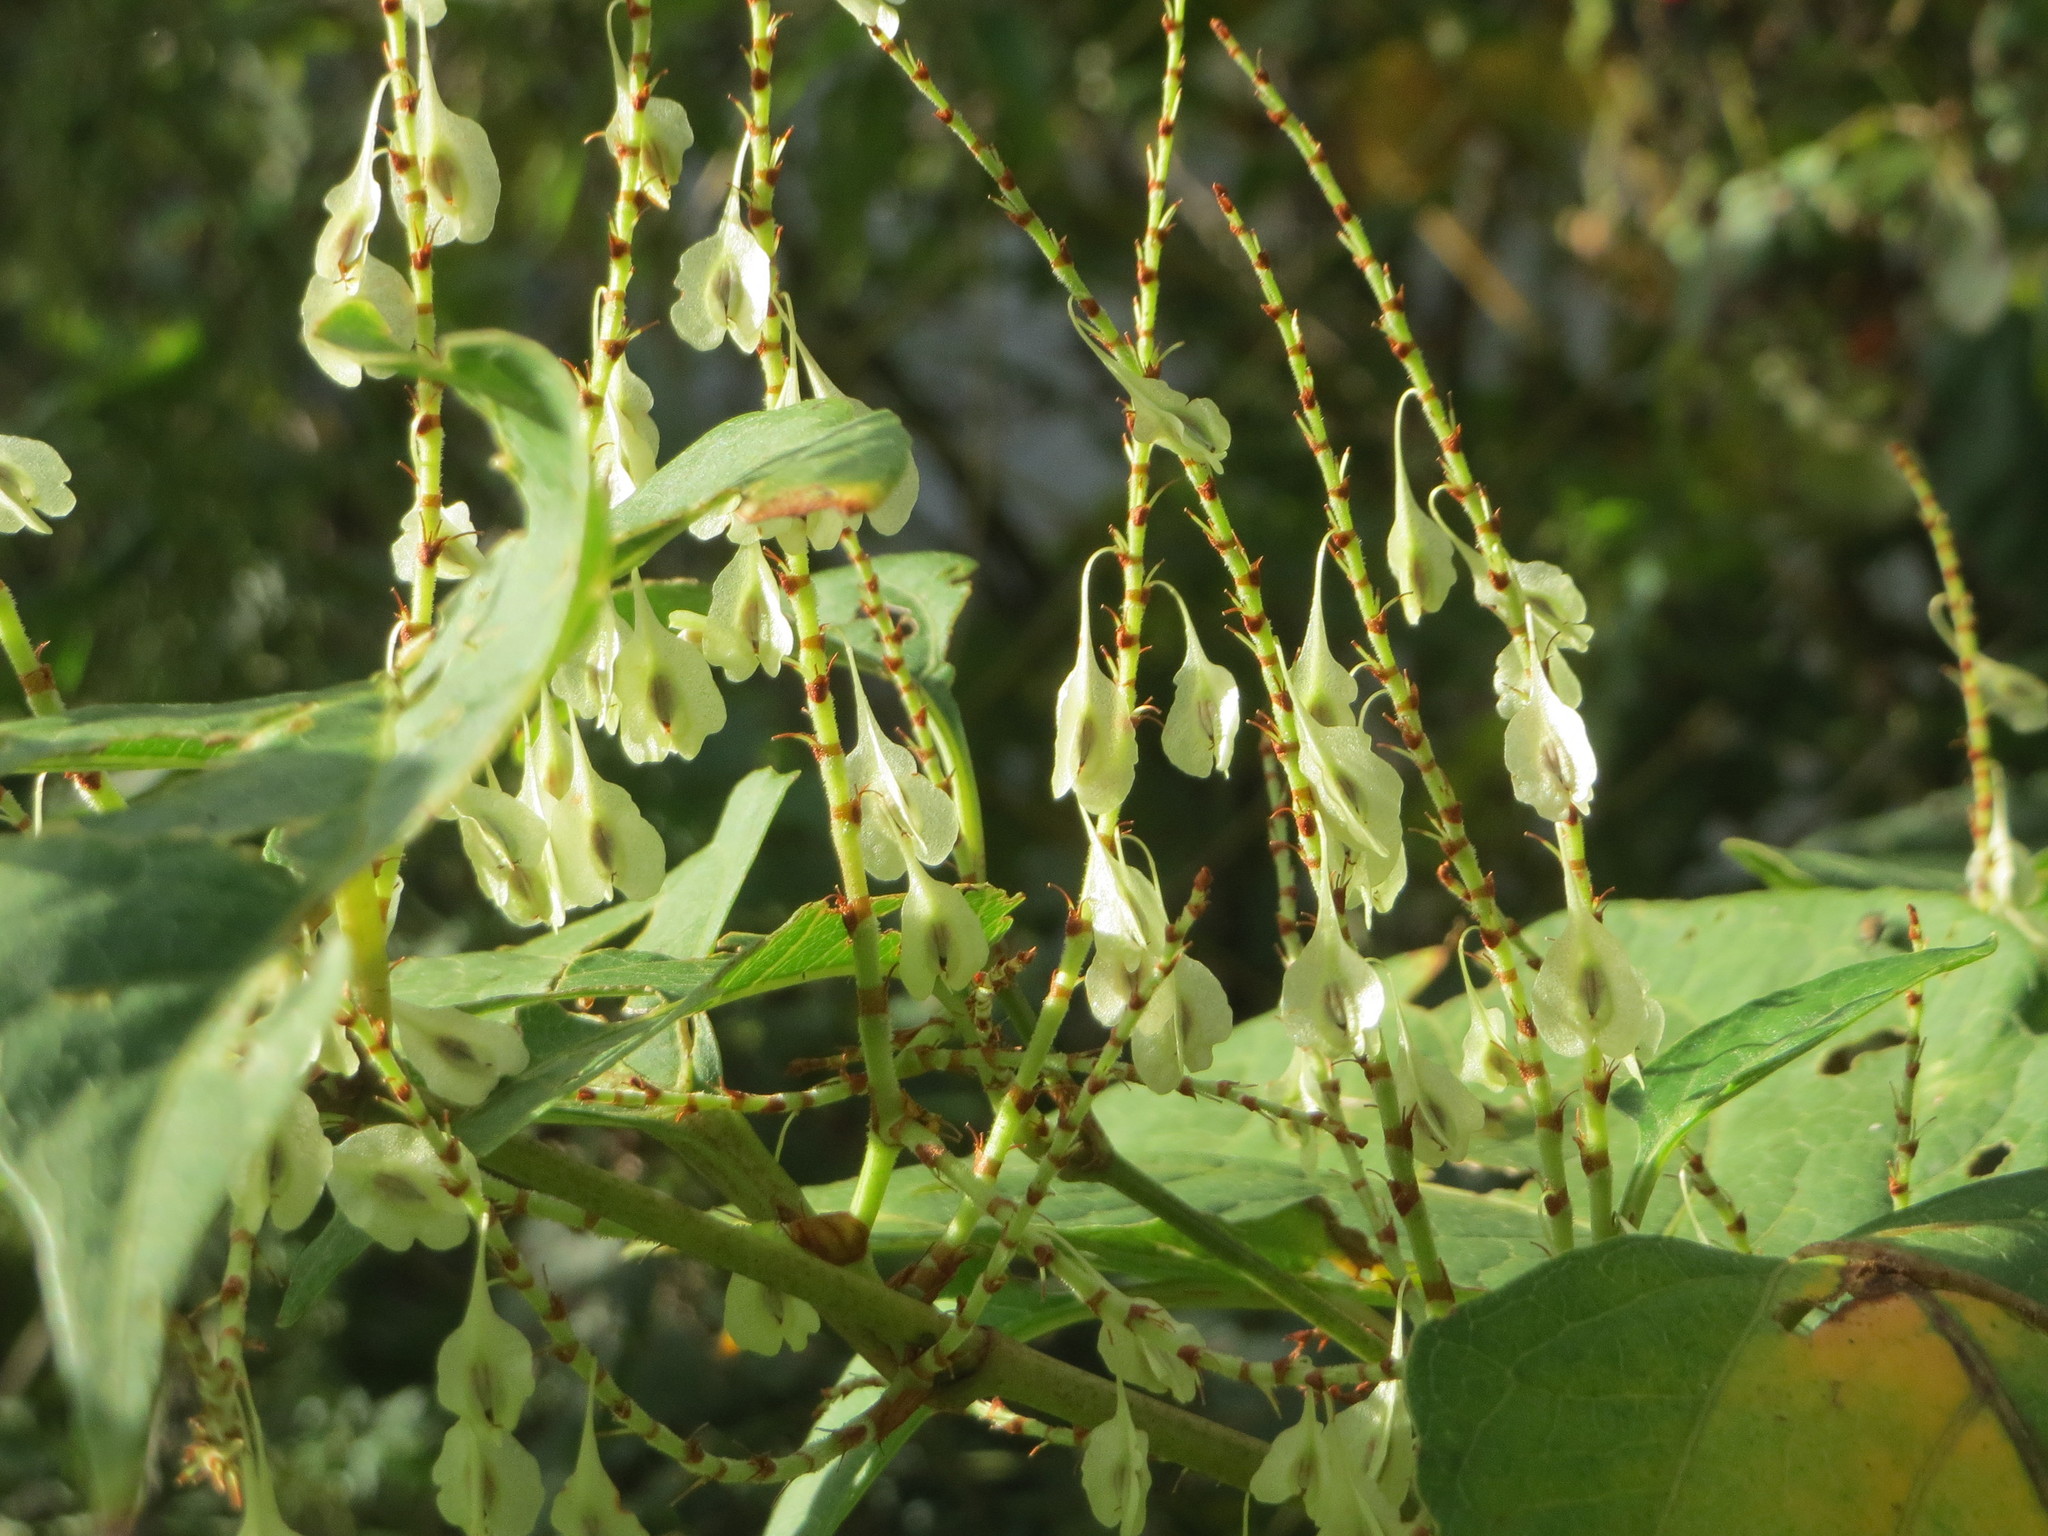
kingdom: Plantae
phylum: Tracheophyta
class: Magnoliopsida
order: Caryophyllales
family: Polygonaceae
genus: Reynoutria
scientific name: Reynoutria japonica
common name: Japanese knotweed
